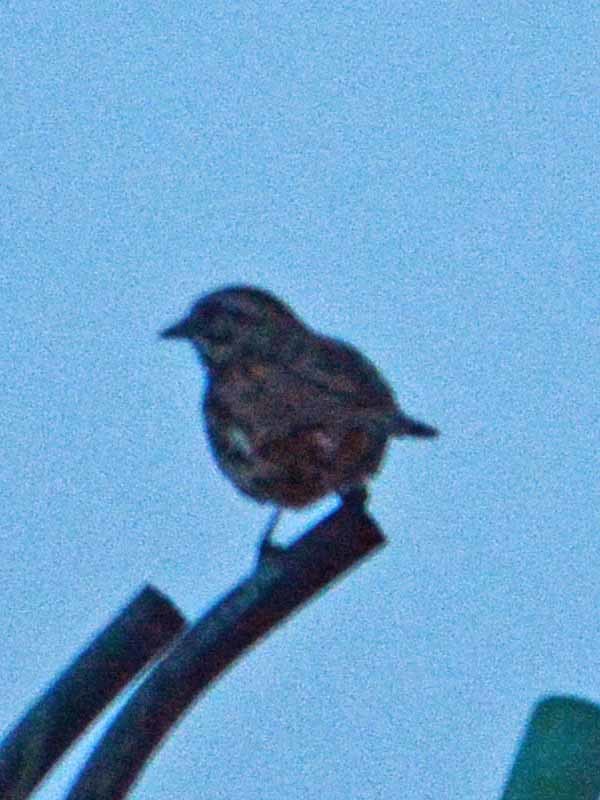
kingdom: Animalia
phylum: Chordata
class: Aves
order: Passeriformes
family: Passerellidae
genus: Melospiza
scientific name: Melospiza melodia
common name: Song sparrow
